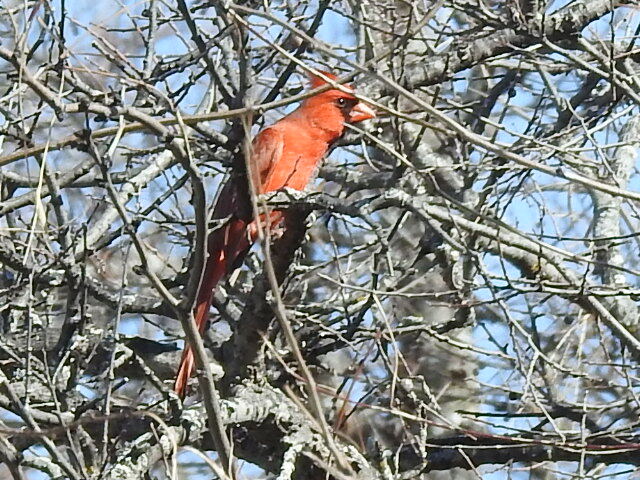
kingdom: Animalia
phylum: Chordata
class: Aves
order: Passeriformes
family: Cardinalidae
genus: Cardinalis
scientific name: Cardinalis cardinalis
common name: Northern cardinal
